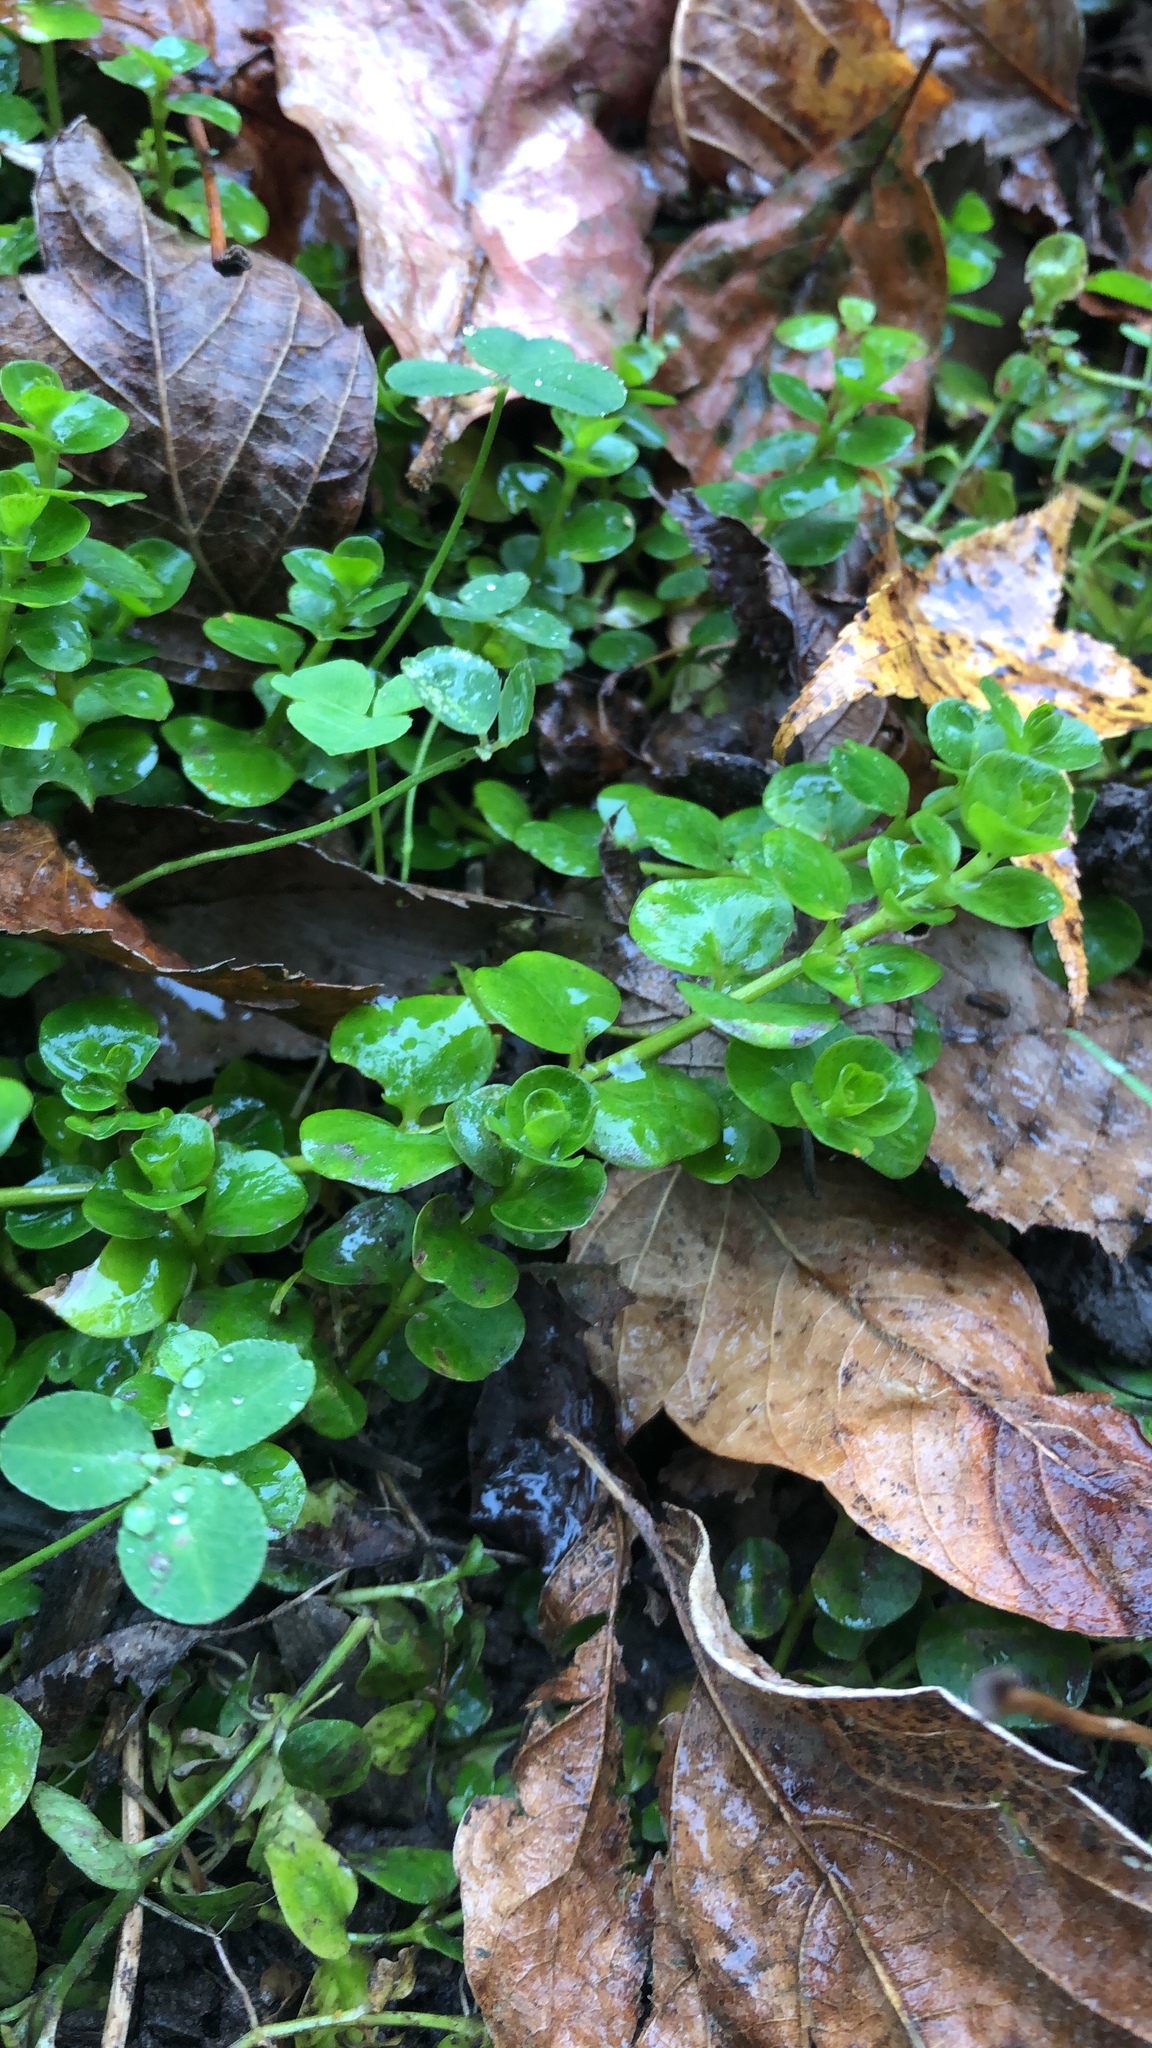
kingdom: Plantae
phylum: Tracheophyta
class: Magnoliopsida
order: Ericales
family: Primulaceae
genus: Lysimachia
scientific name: Lysimachia nummularia
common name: Moneywort
